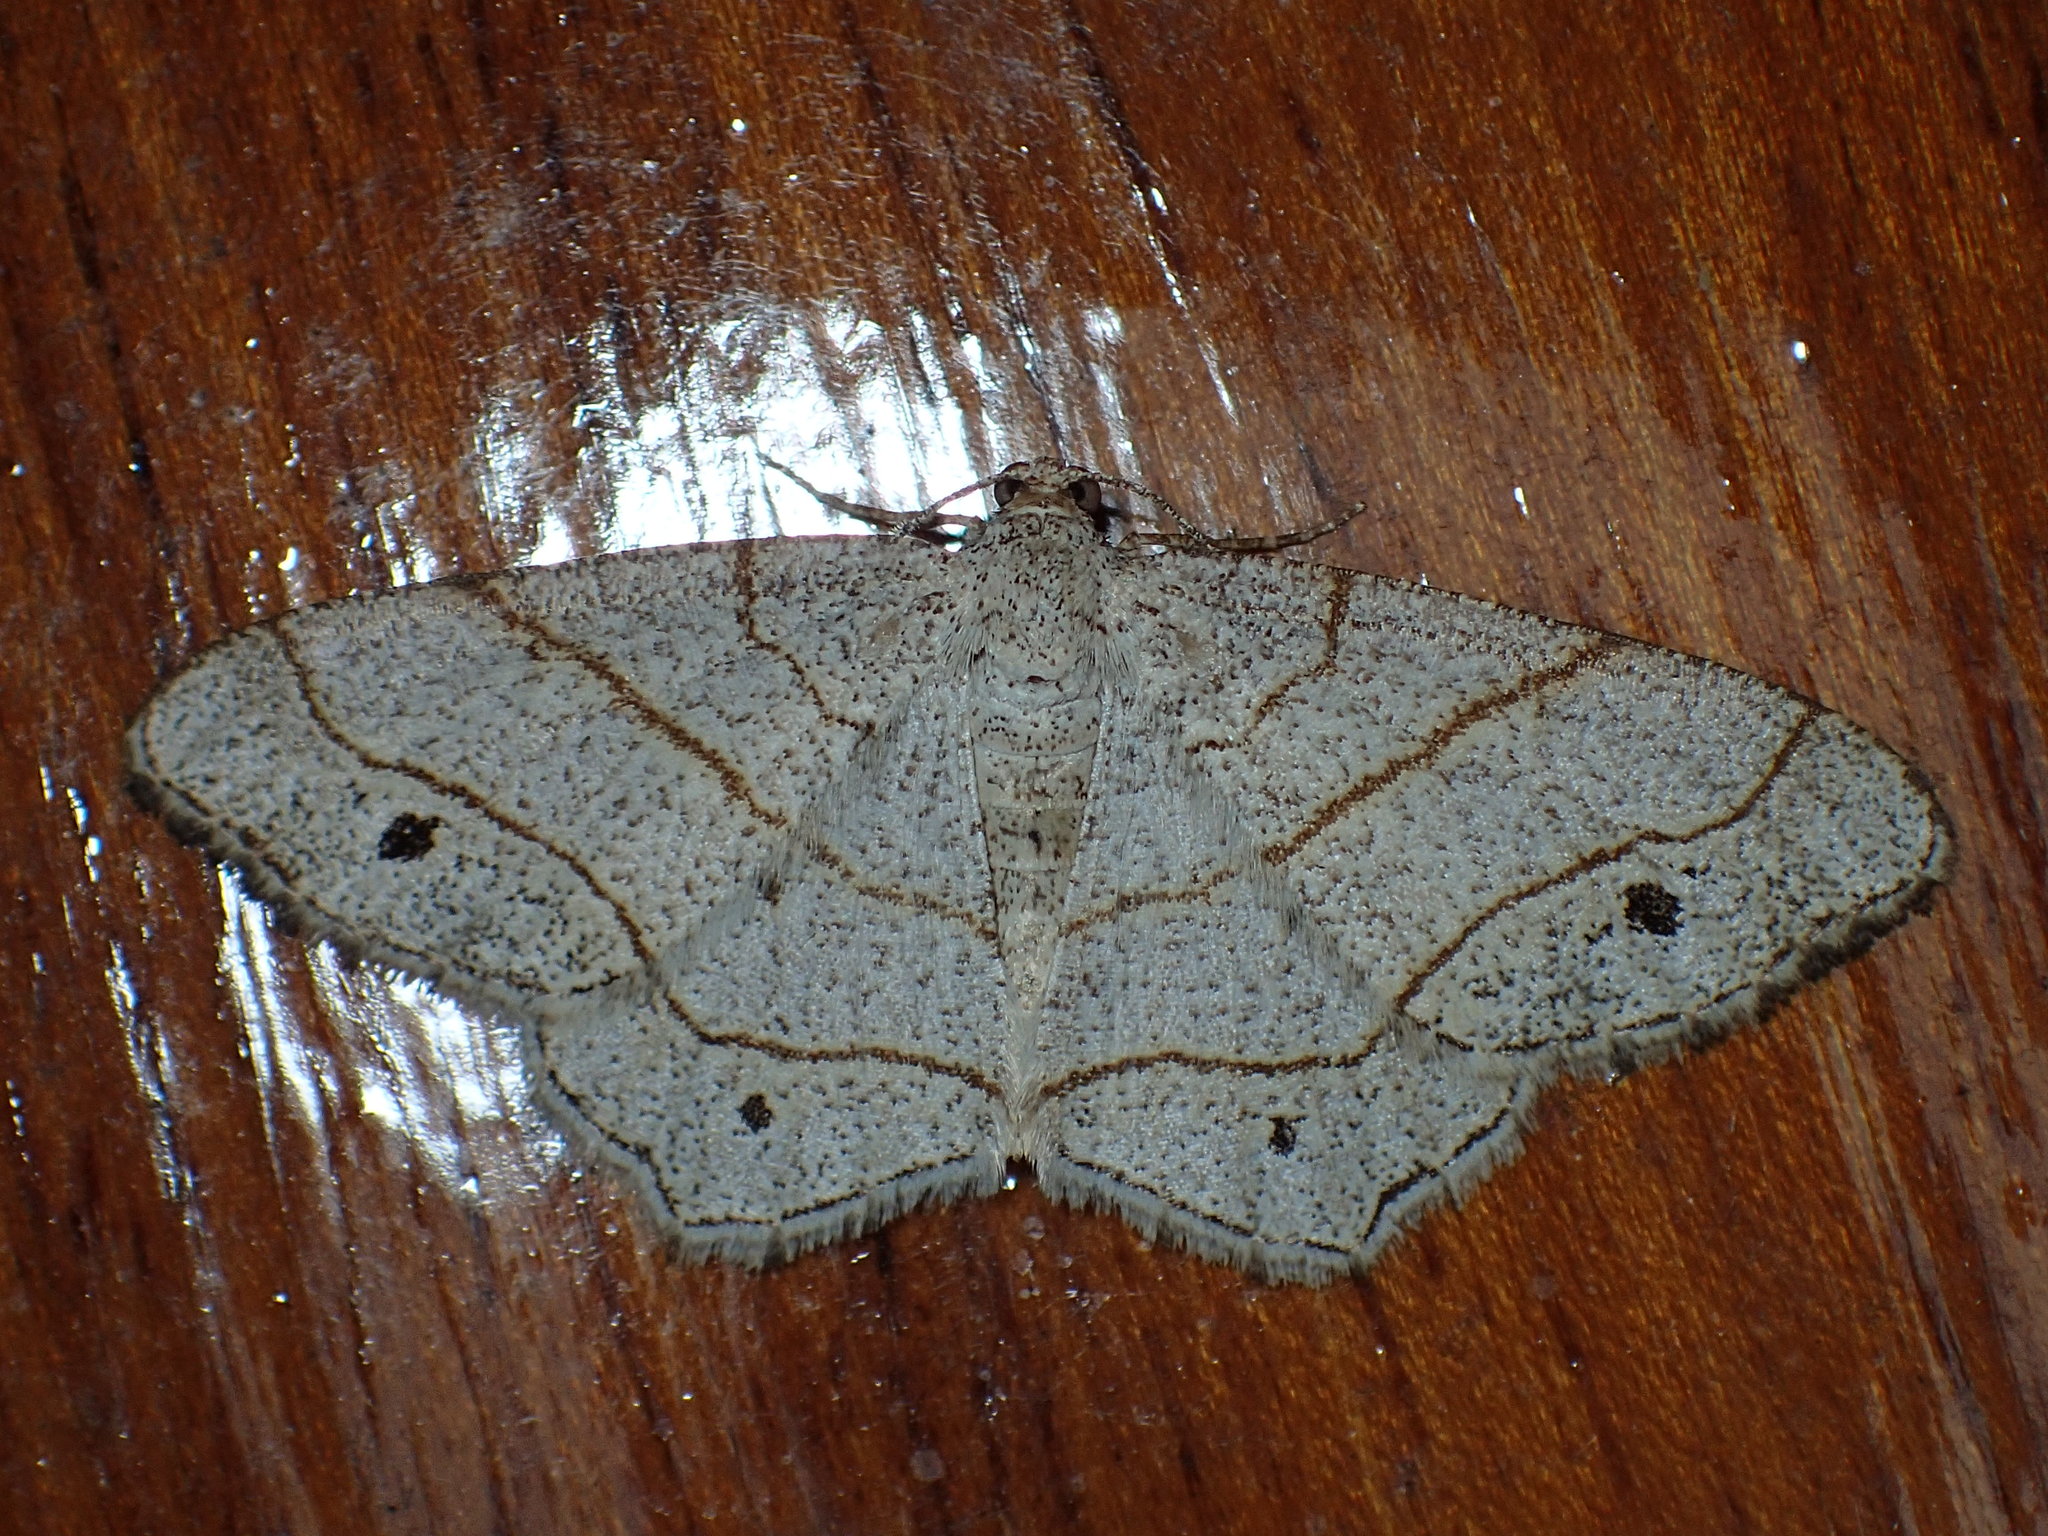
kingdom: Animalia
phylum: Arthropoda
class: Insecta
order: Lepidoptera
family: Geometridae
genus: Trigrammia
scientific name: Trigrammia quadrinotaria
